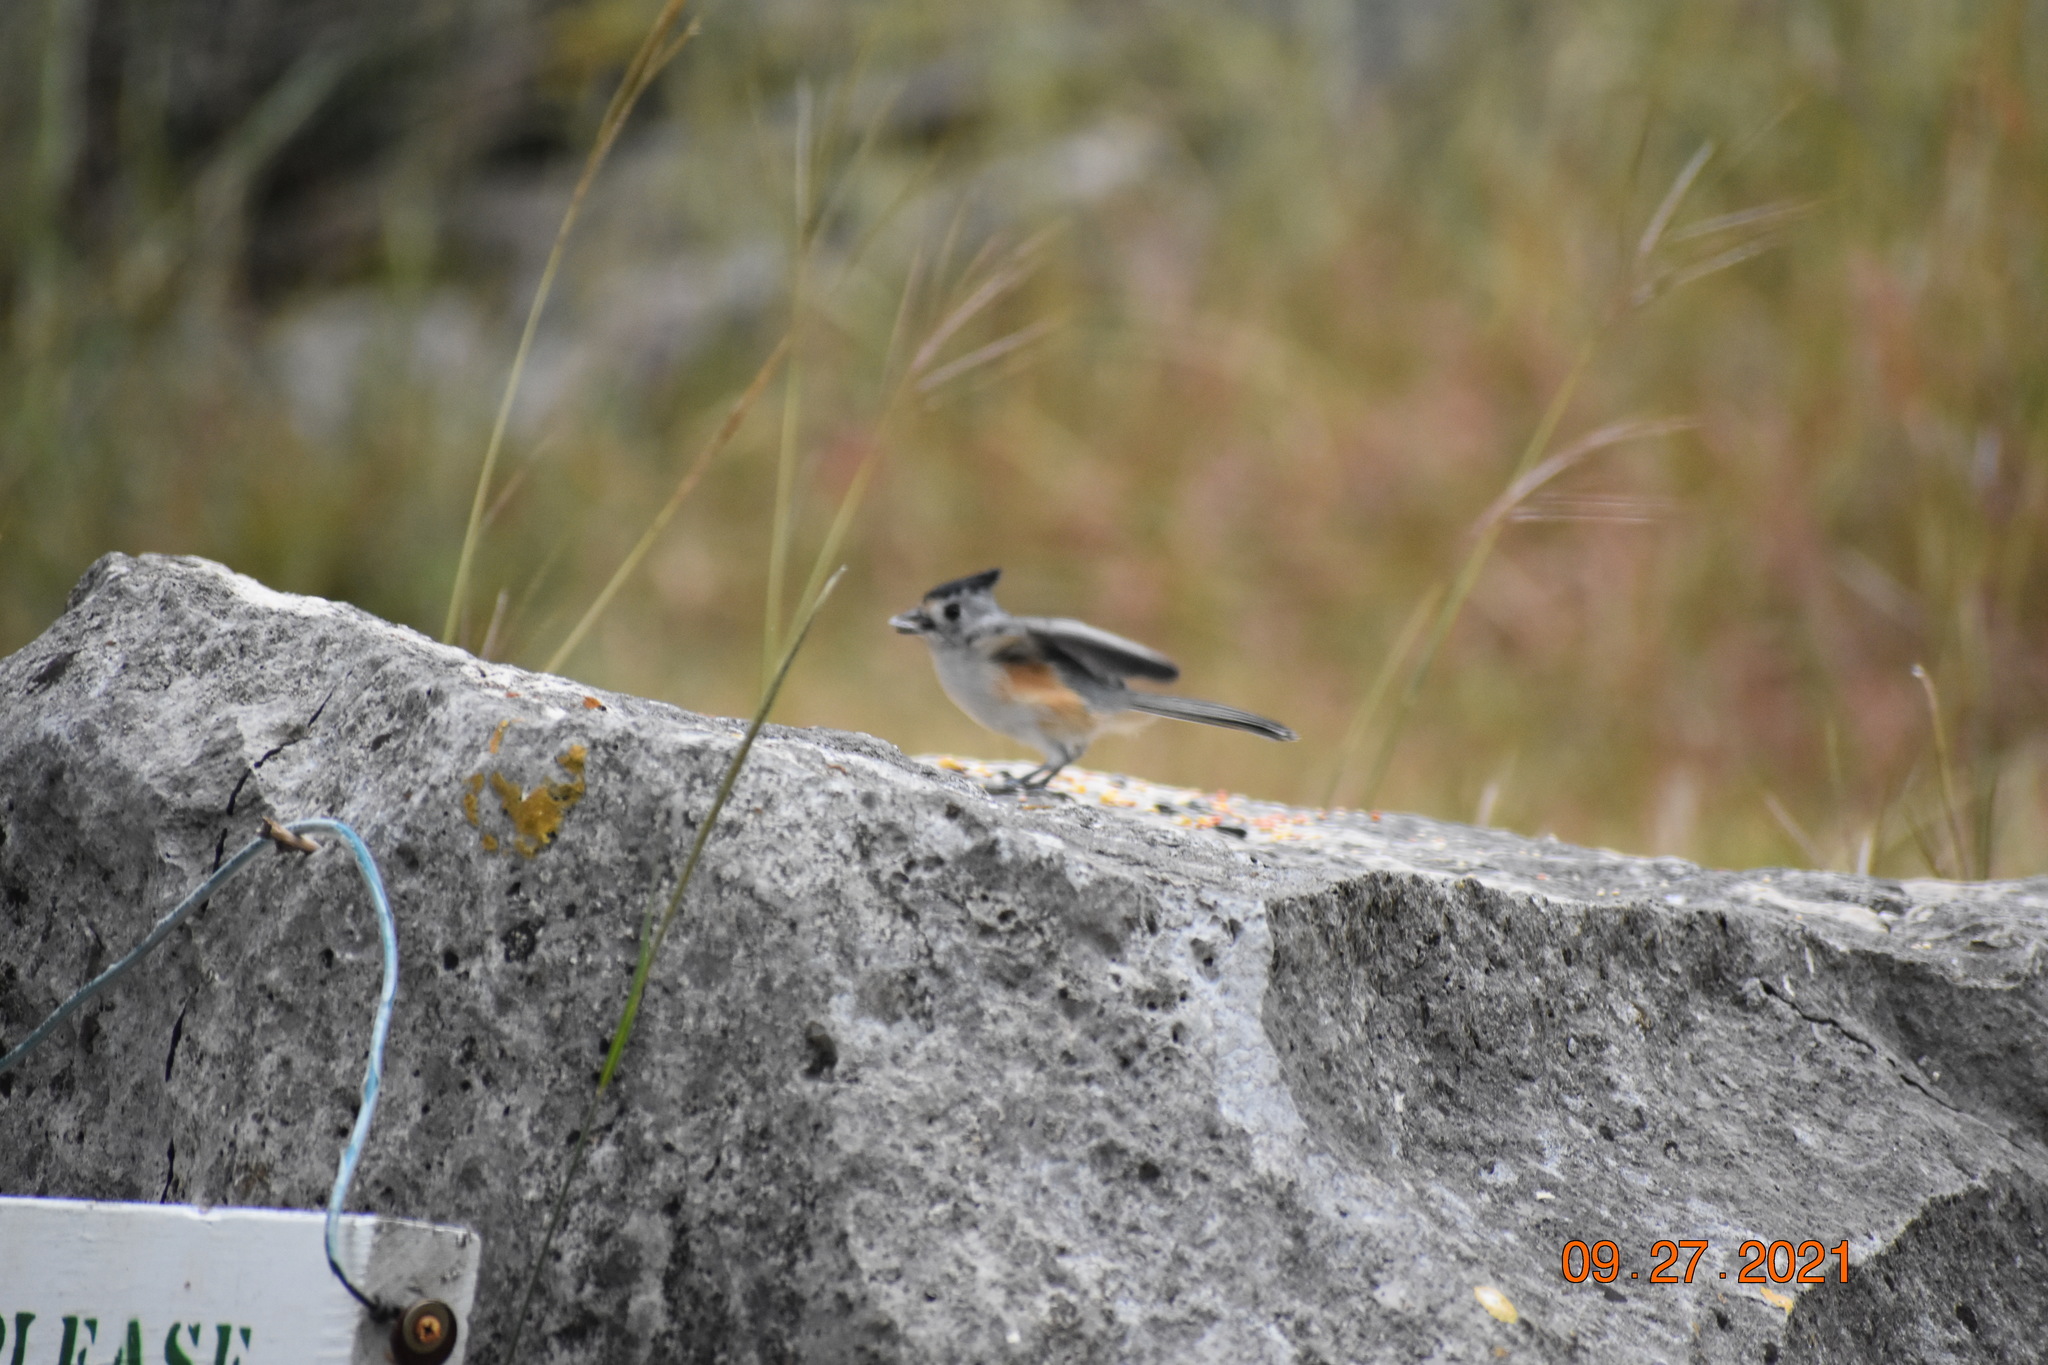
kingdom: Animalia
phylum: Chordata
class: Aves
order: Passeriformes
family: Paridae
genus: Baeolophus
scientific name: Baeolophus atricristatus
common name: Black-crested titmouse
